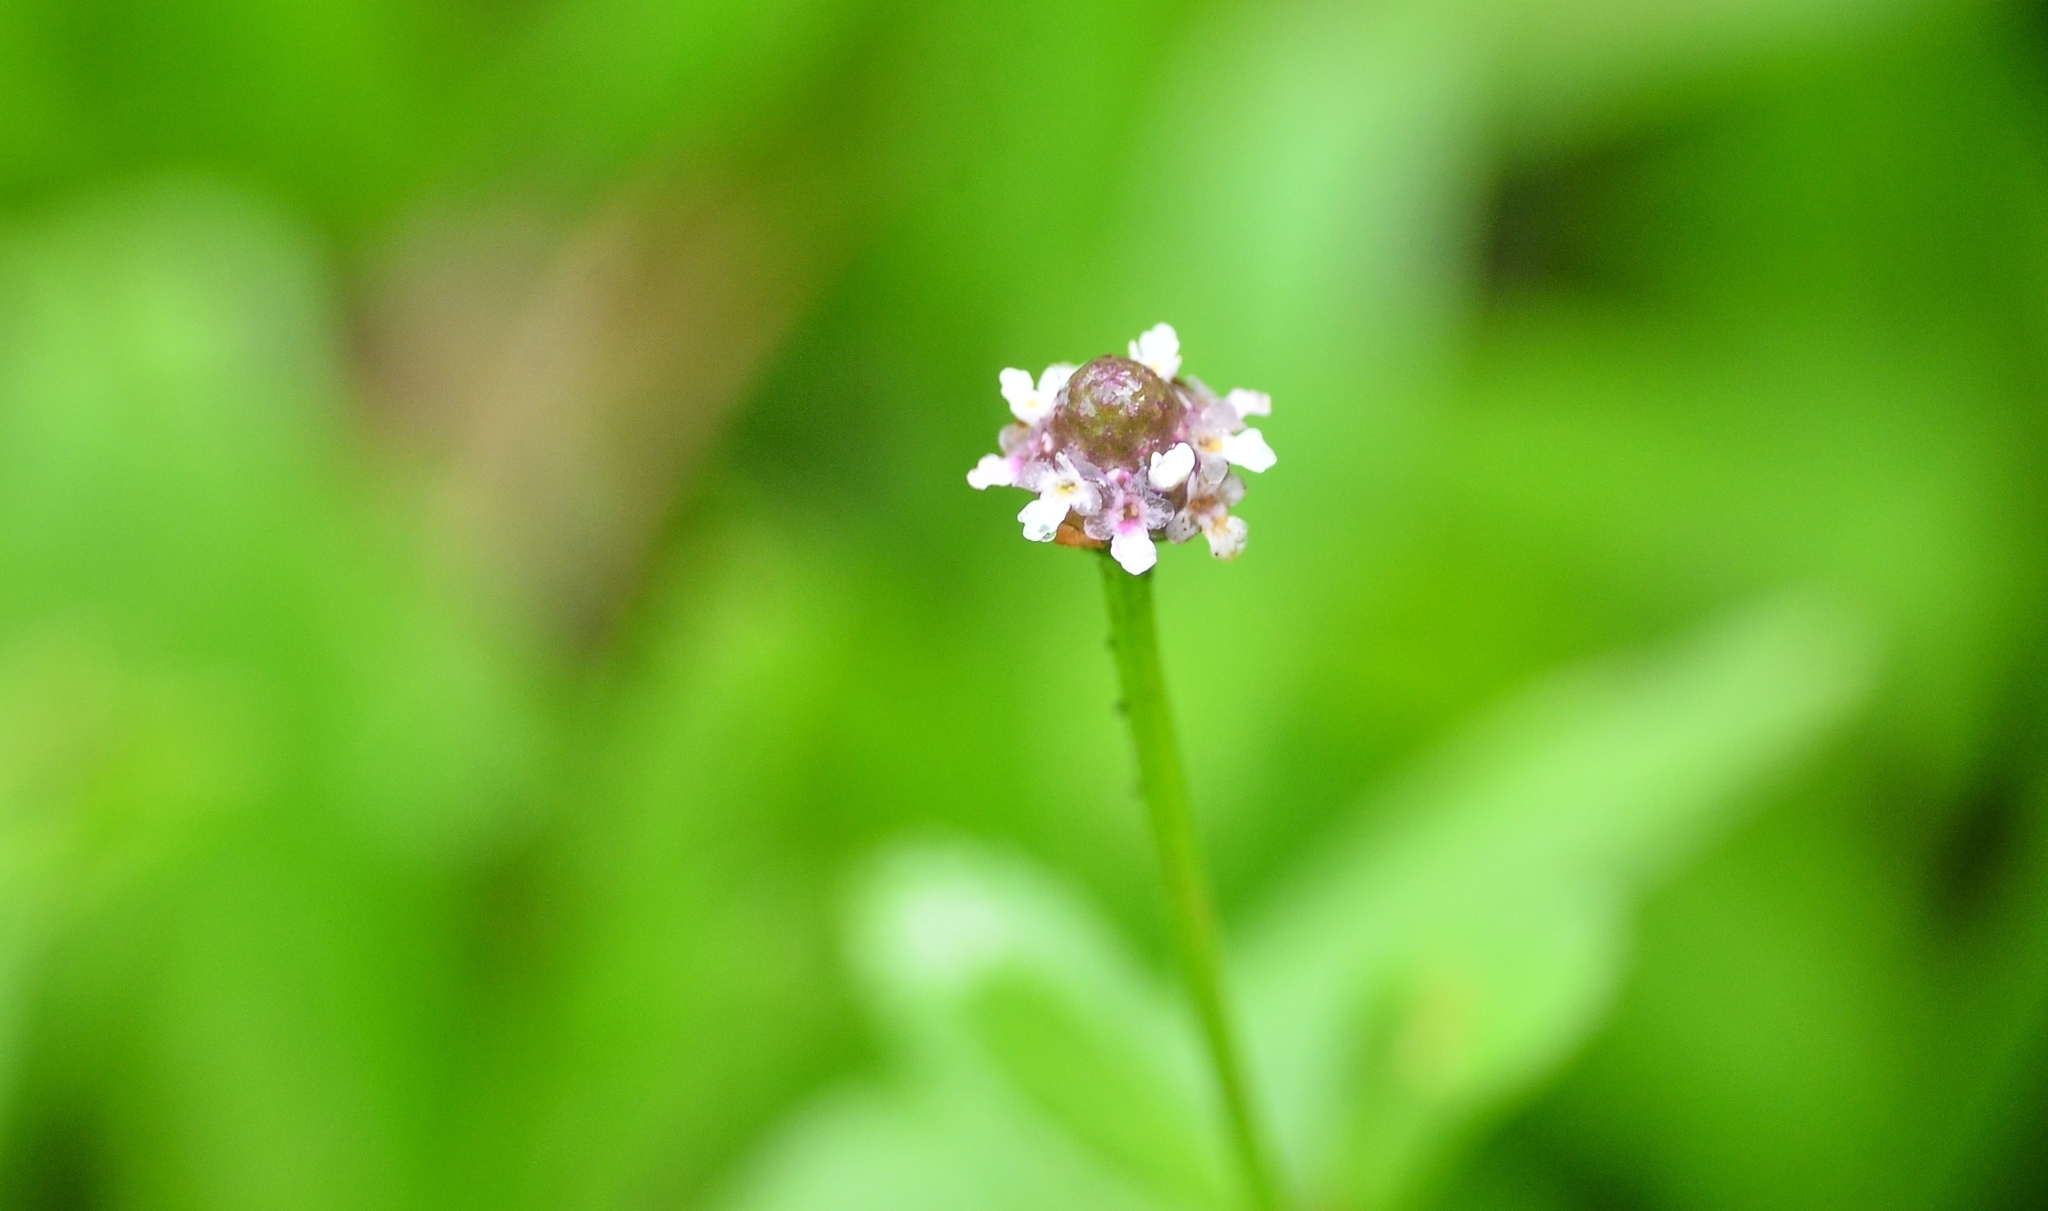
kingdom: Plantae
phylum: Tracheophyta
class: Magnoliopsida
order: Lamiales
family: Verbenaceae
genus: Phyla
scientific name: Phyla nodiflora
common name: Frogfruit
